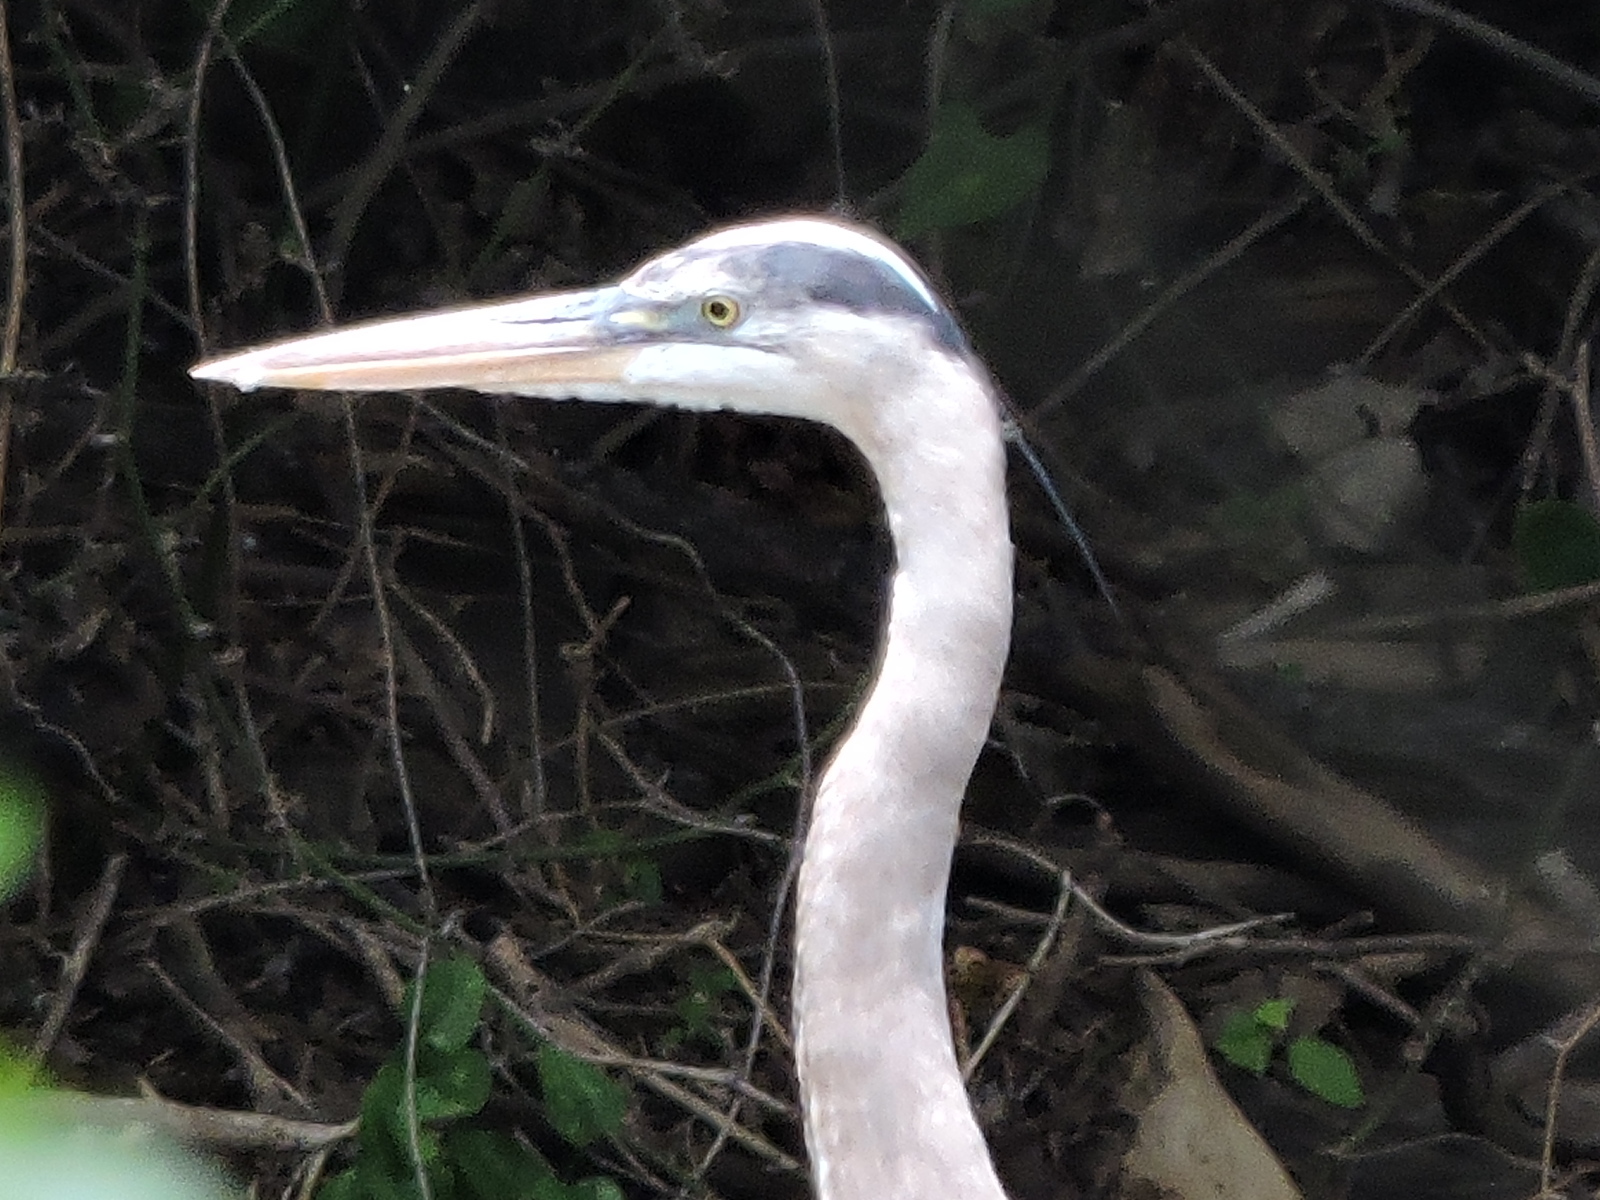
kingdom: Animalia
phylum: Chordata
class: Aves
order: Pelecaniformes
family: Ardeidae
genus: Ardea
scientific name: Ardea herodias
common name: Great blue heron
